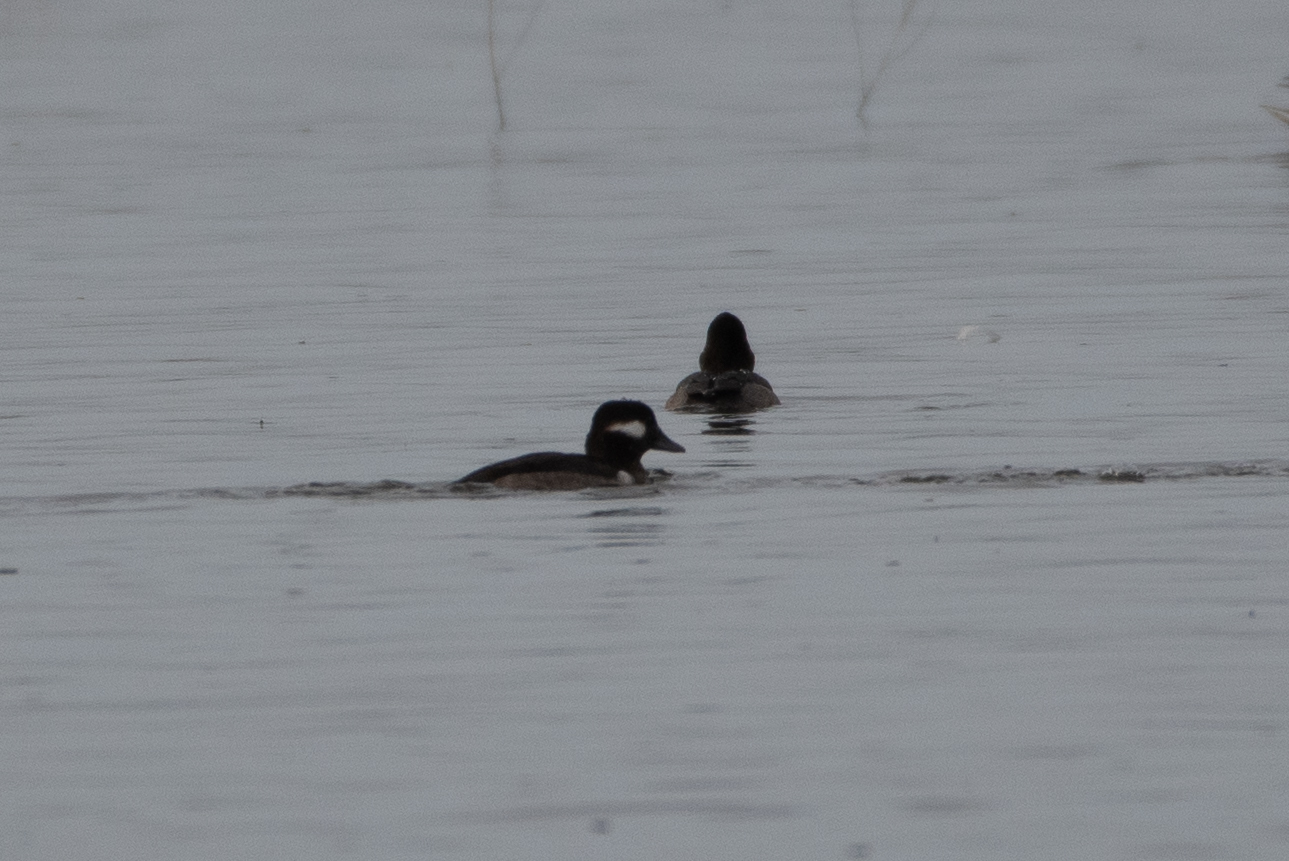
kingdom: Animalia
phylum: Chordata
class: Aves
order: Anseriformes
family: Anatidae
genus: Bucephala
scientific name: Bucephala albeola
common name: Bufflehead
